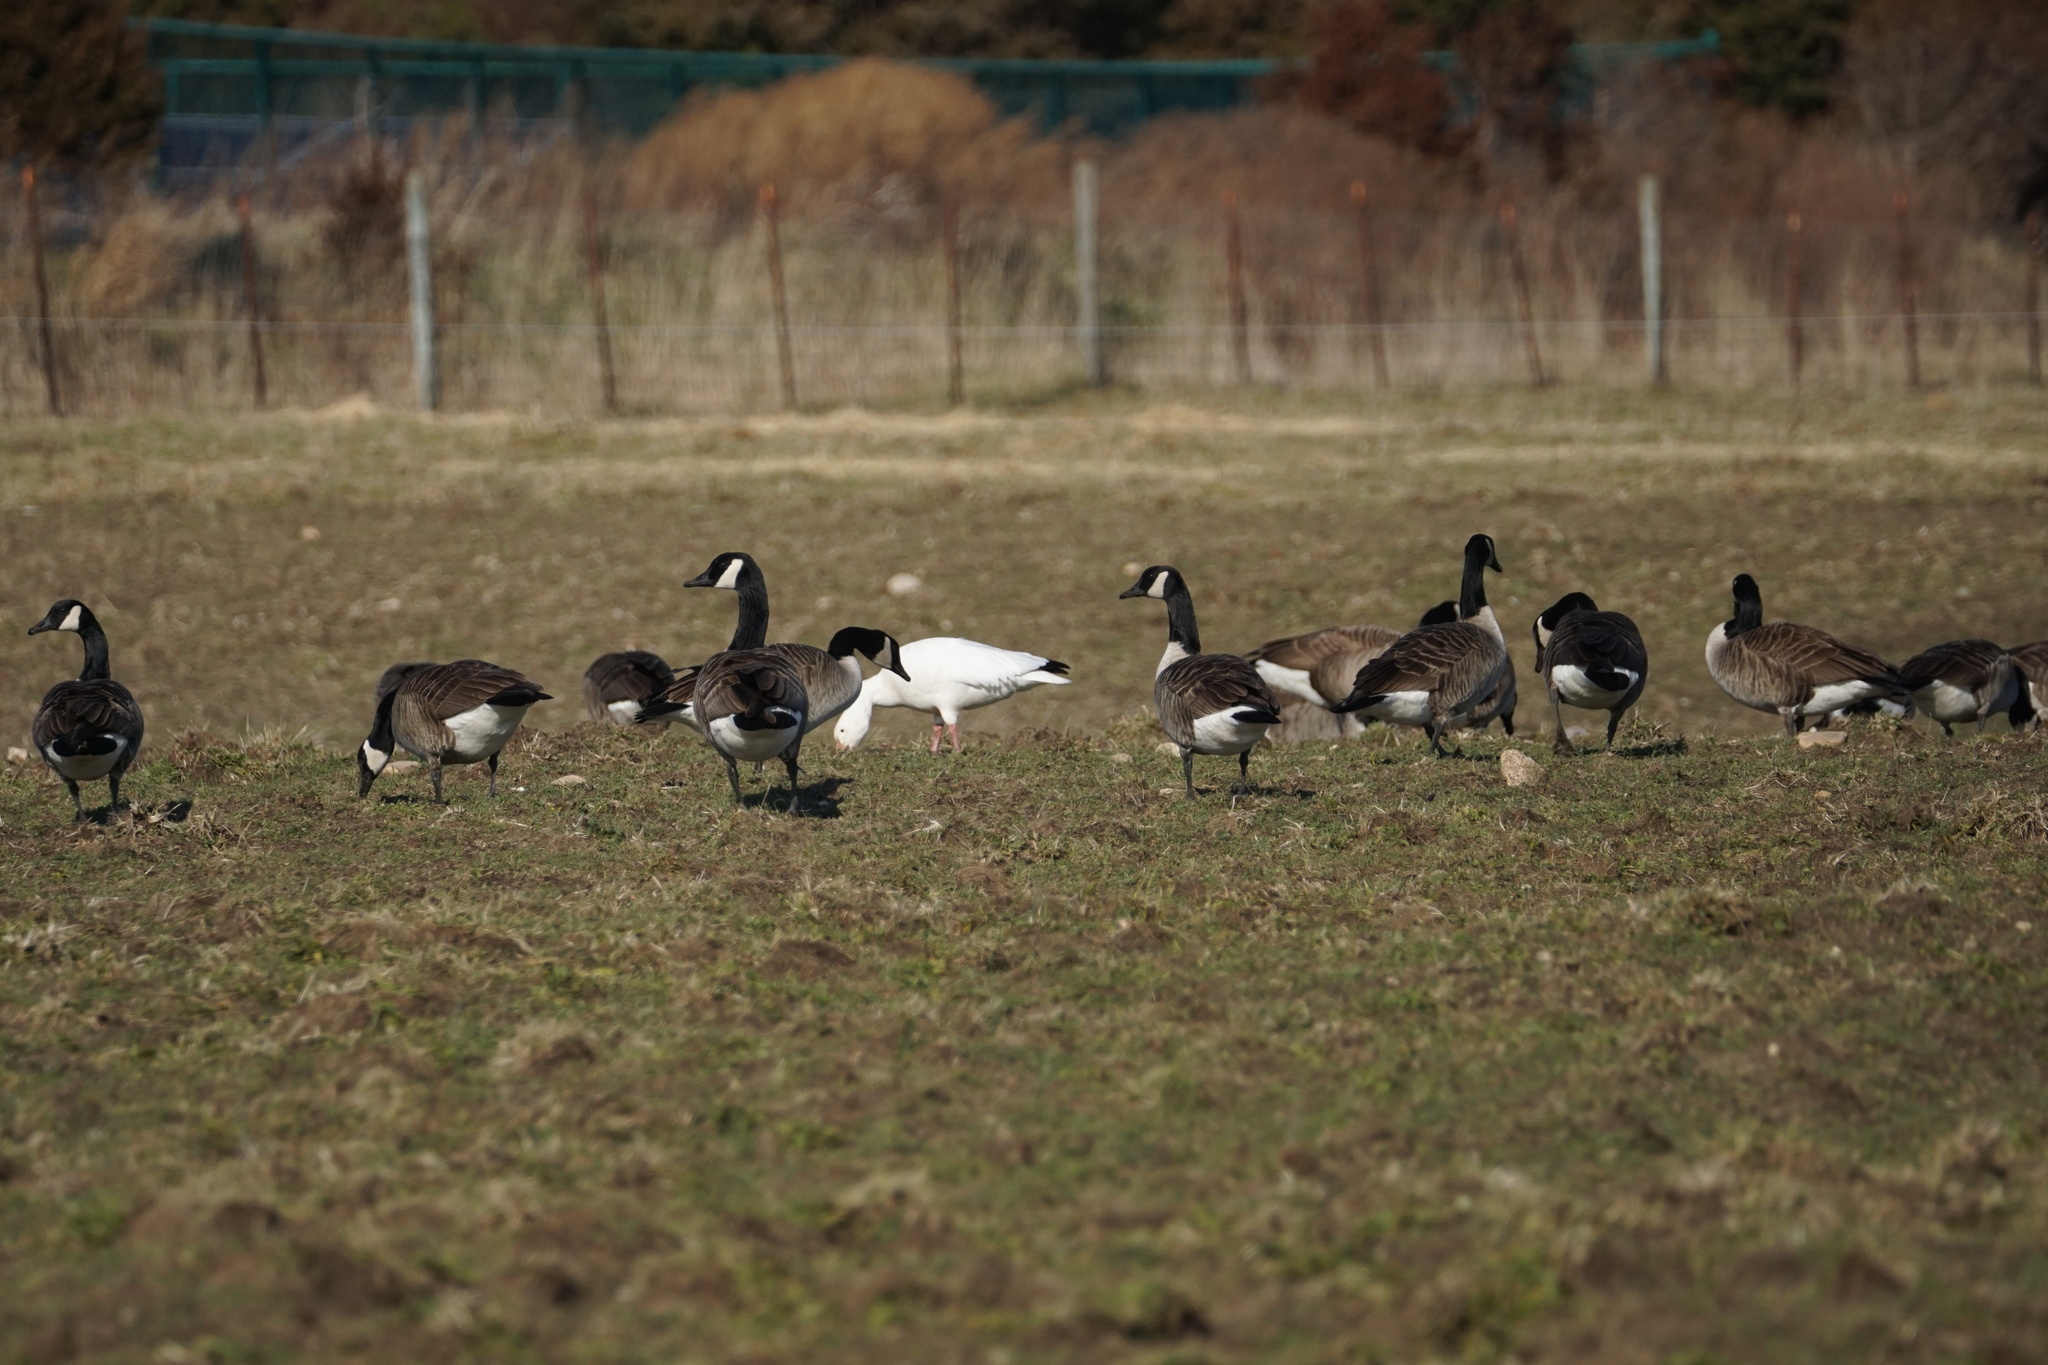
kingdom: Animalia
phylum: Chordata
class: Aves
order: Anseriformes
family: Anatidae
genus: Branta
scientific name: Branta canadensis
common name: Canada goose
